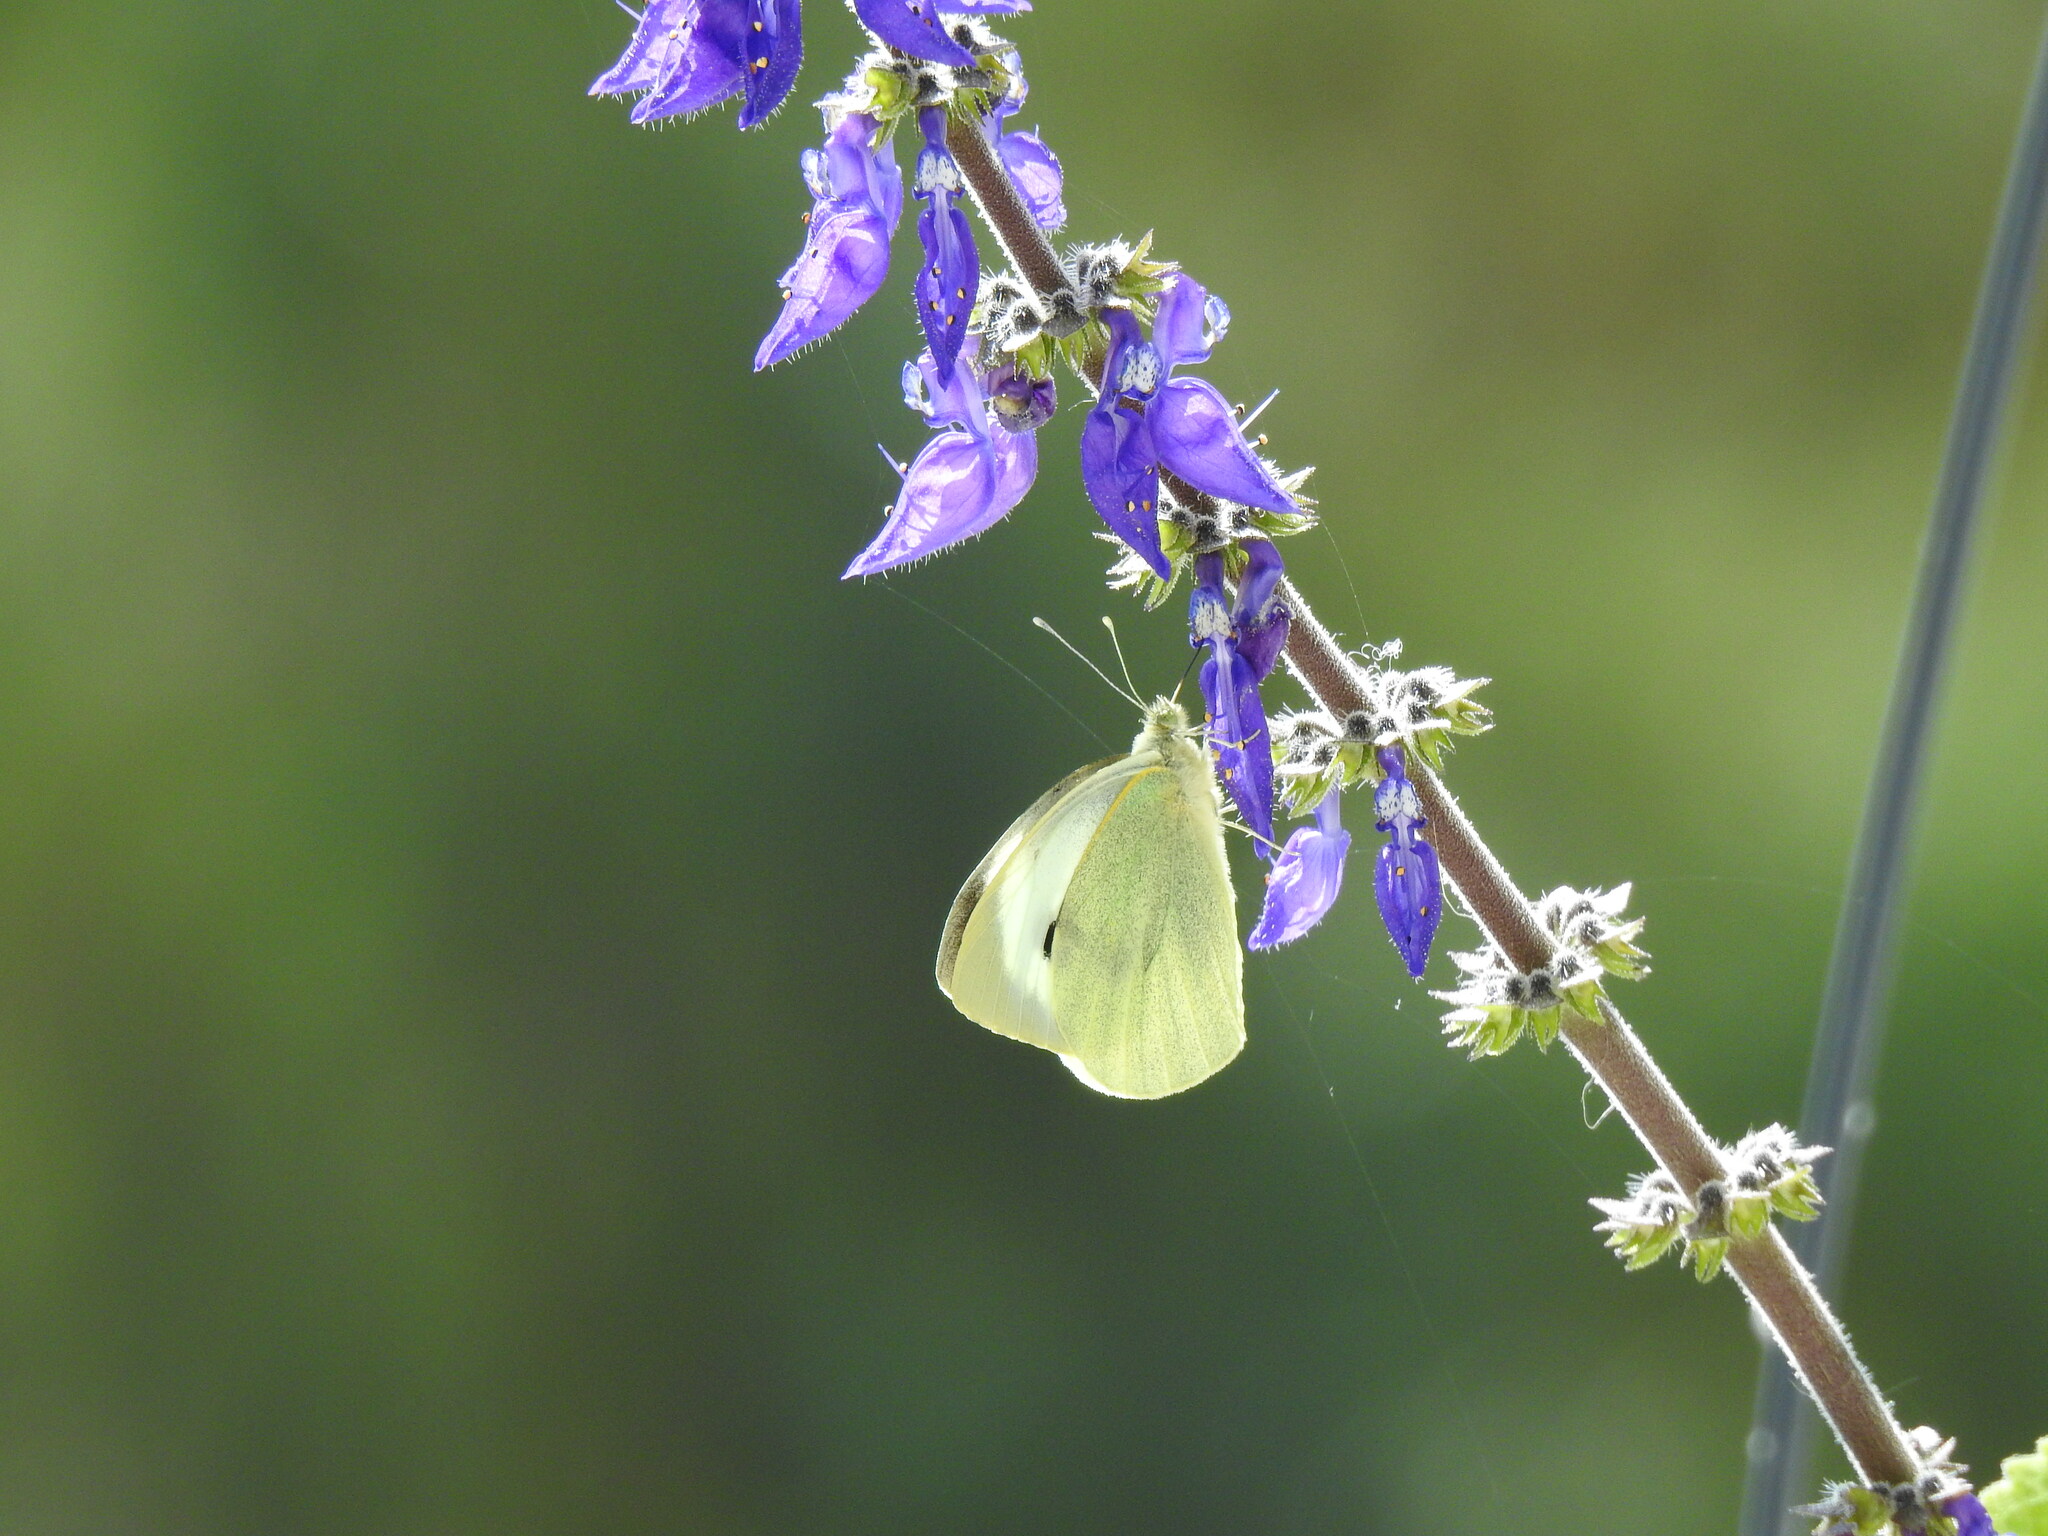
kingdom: Animalia
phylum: Arthropoda
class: Insecta
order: Lepidoptera
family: Pieridae
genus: Pieris
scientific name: Pieris brassicae
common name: Large white
